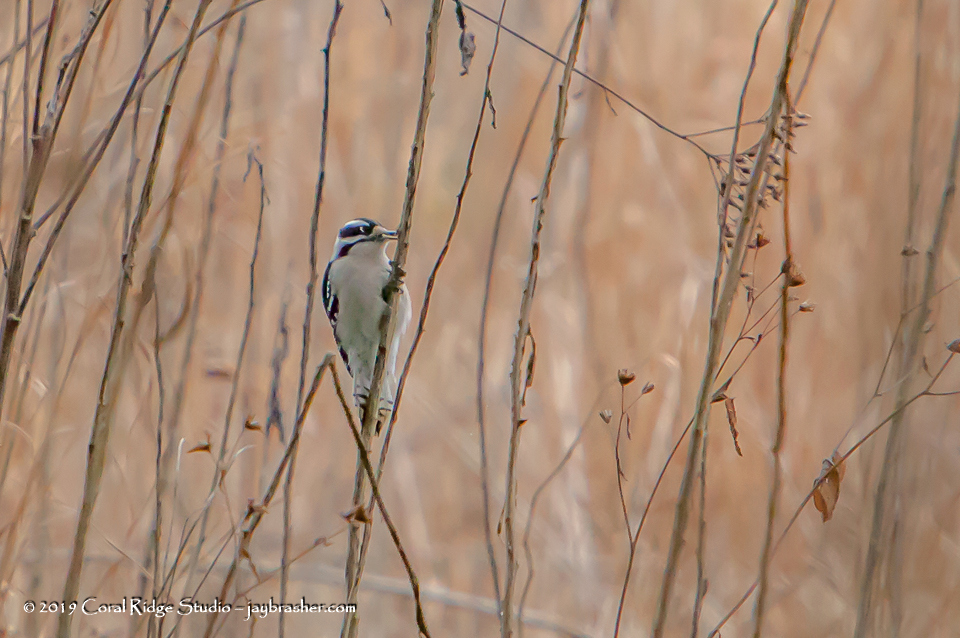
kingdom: Animalia
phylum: Chordata
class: Aves
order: Piciformes
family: Picidae
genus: Dryobates
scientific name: Dryobates pubescens
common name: Downy woodpecker
